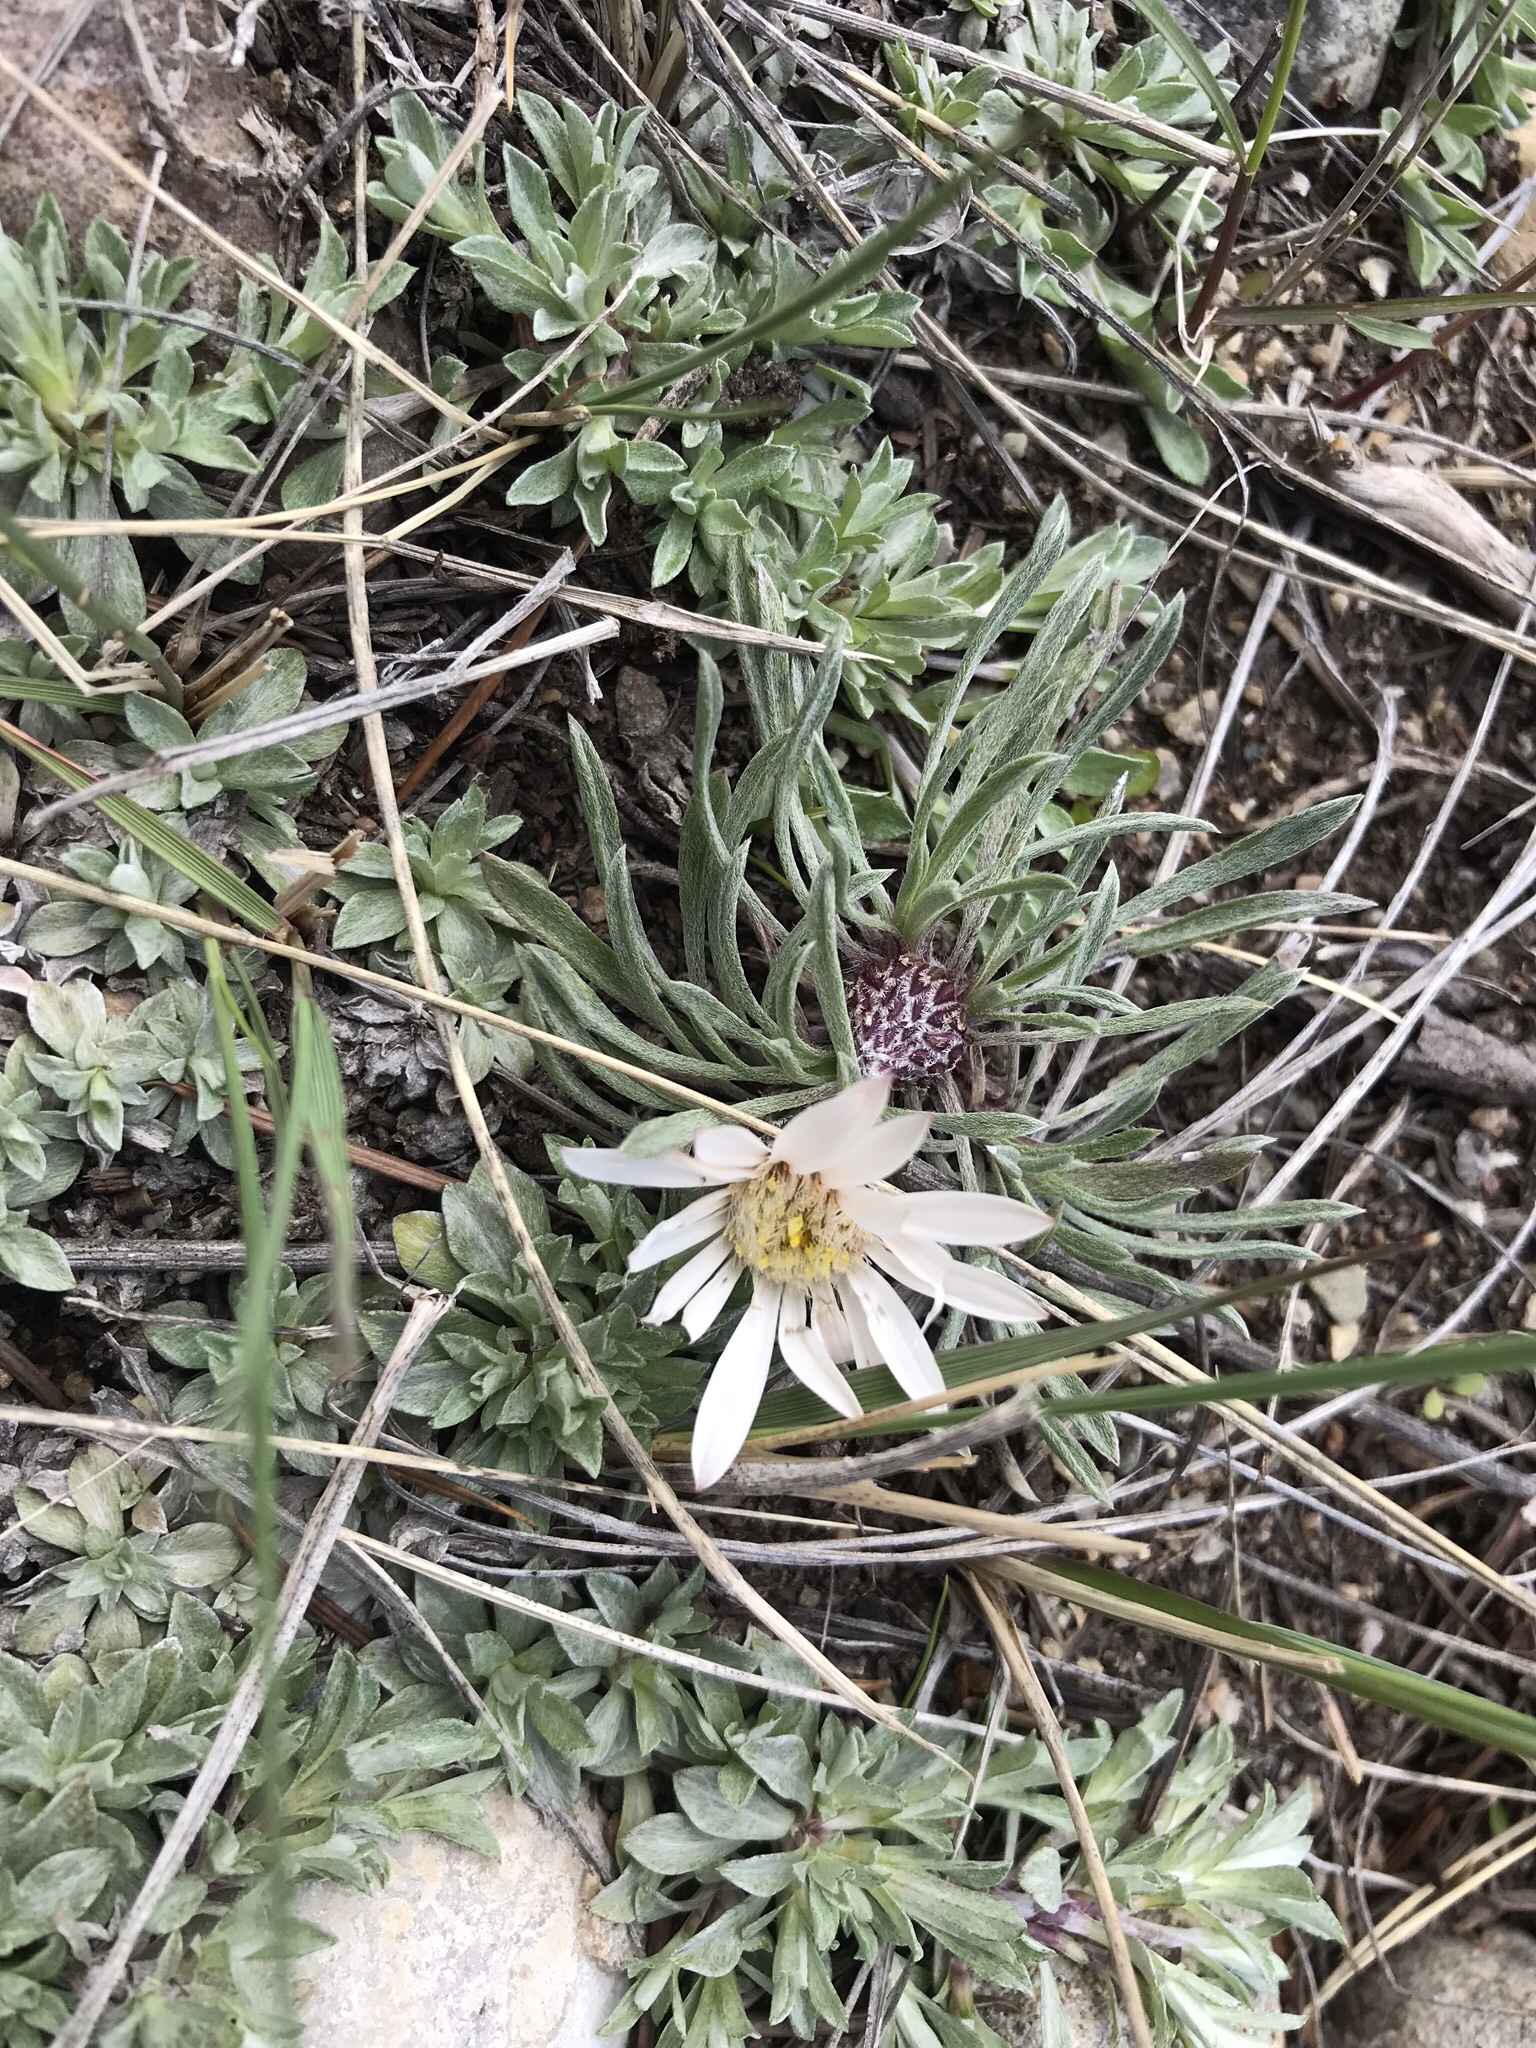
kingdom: Plantae
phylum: Tracheophyta
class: Magnoliopsida
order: Asterales
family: Asteraceae
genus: Townsendia
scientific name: Townsendia hookeri
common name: Hooker's townsend daisy
